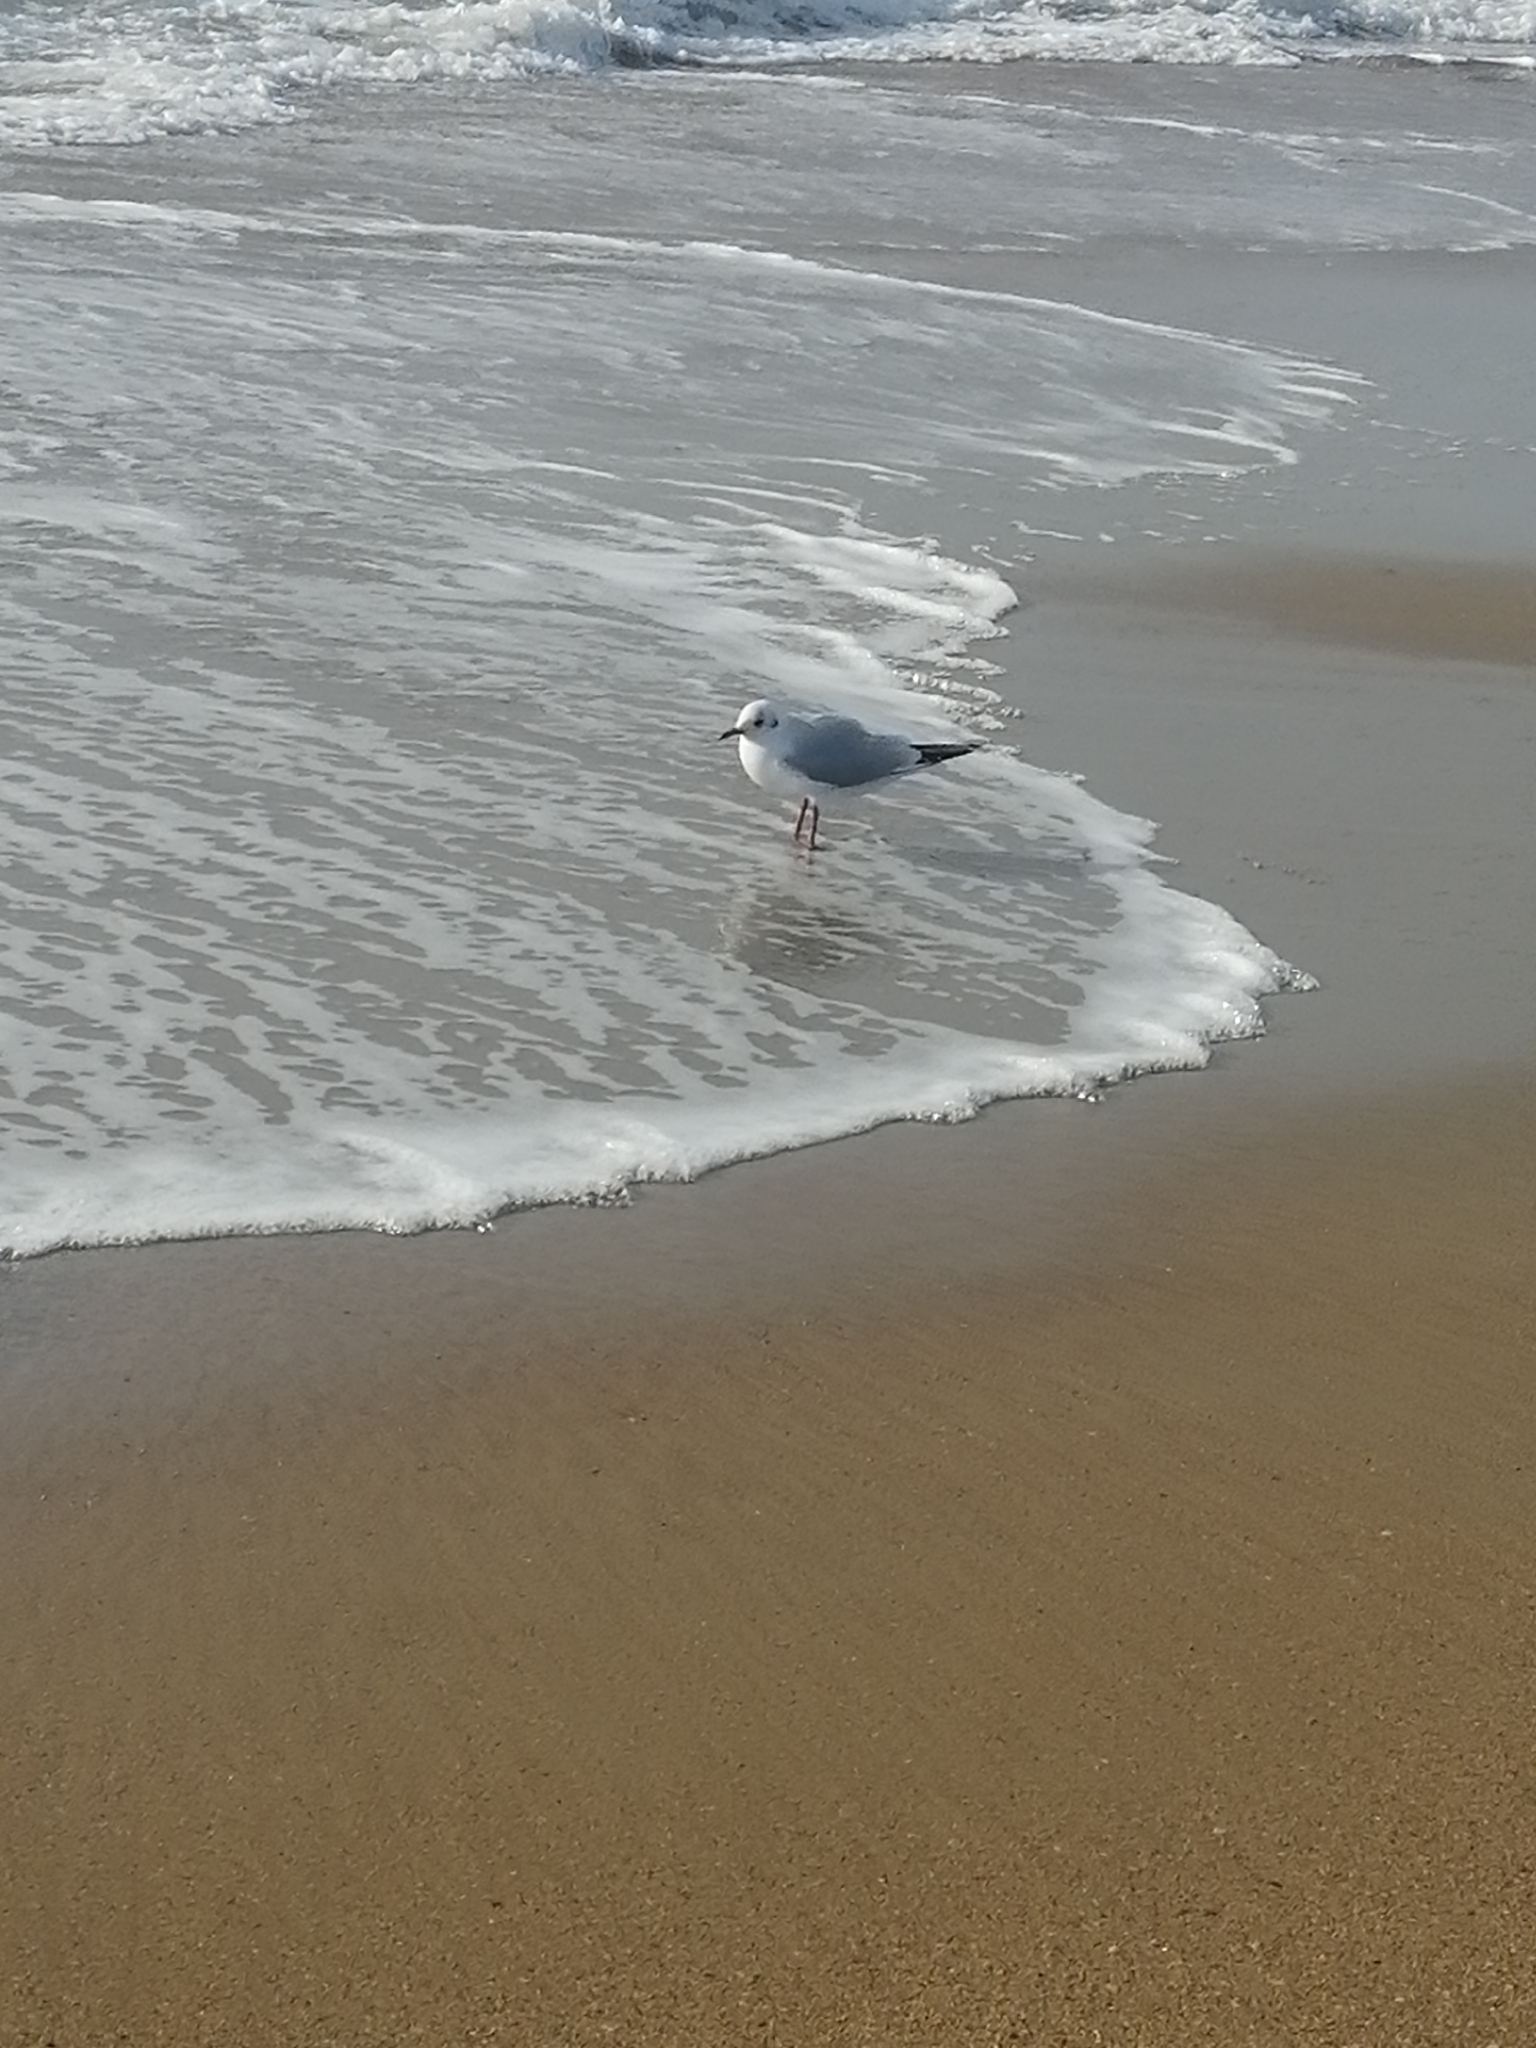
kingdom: Animalia
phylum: Chordata
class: Aves
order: Charadriiformes
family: Laridae
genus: Chroicocephalus
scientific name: Chroicocephalus ridibundus
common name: Black-headed gull
